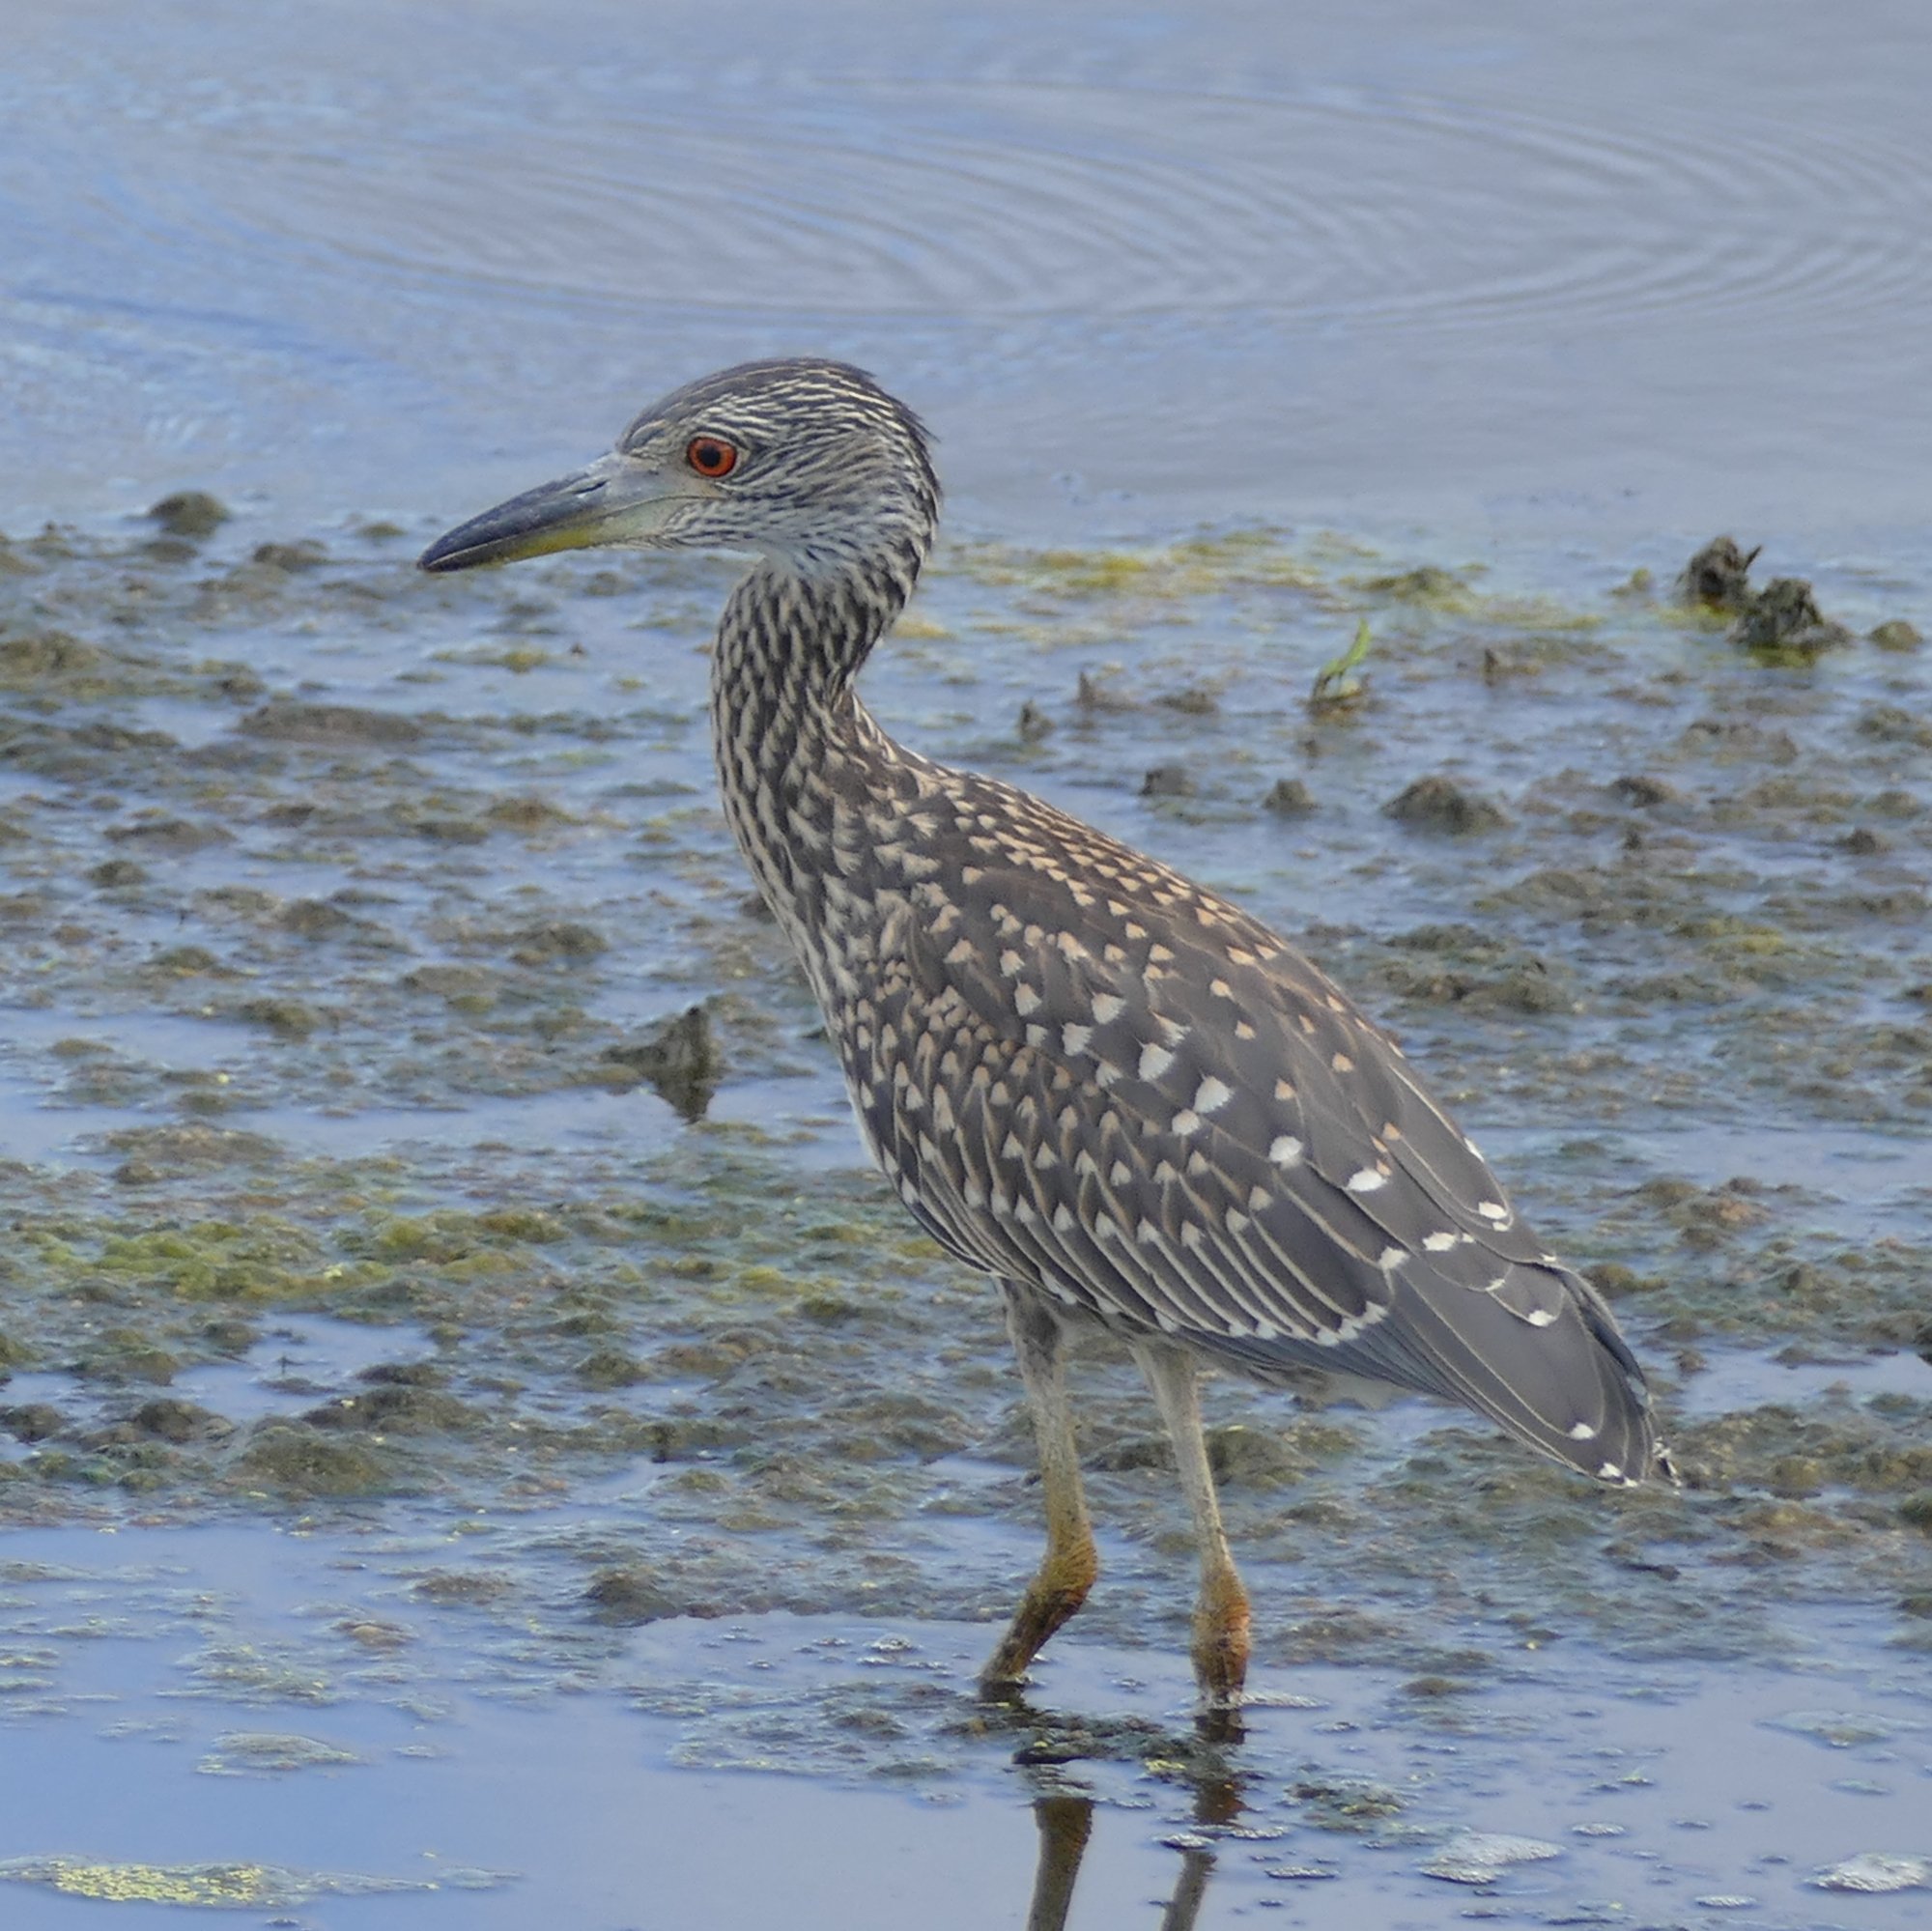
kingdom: Animalia
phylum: Chordata
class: Aves
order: Pelecaniformes
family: Ardeidae
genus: Nyctanassa
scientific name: Nyctanassa violacea
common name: Yellow-crowned night heron
